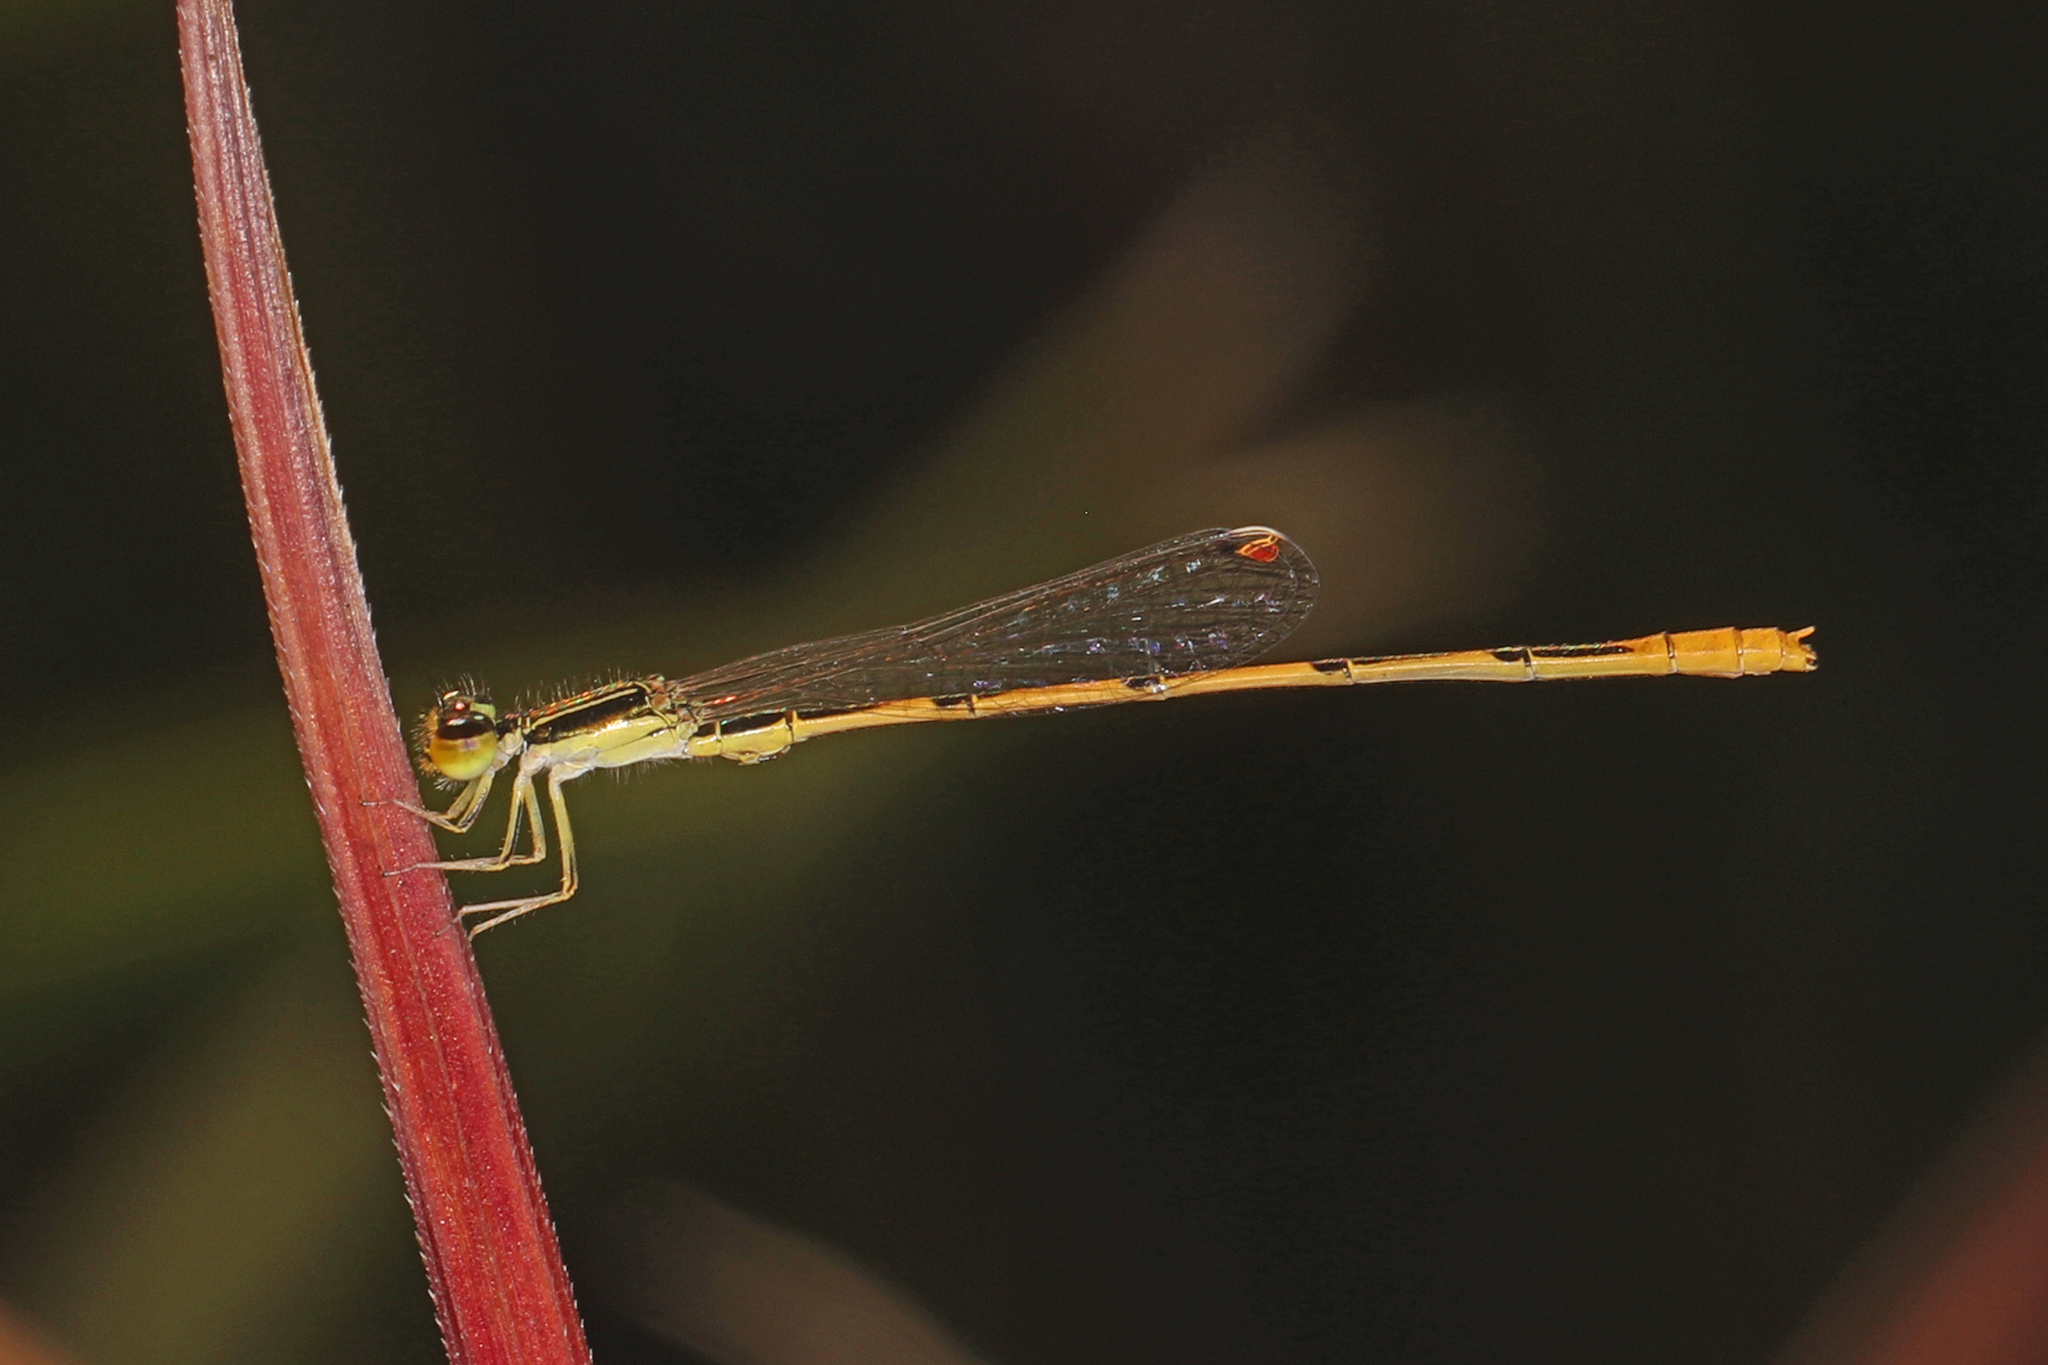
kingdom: Animalia
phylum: Arthropoda
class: Insecta
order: Odonata
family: Coenagrionidae
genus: Ischnura
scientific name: Ischnura hastata
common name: Citrine forktail
